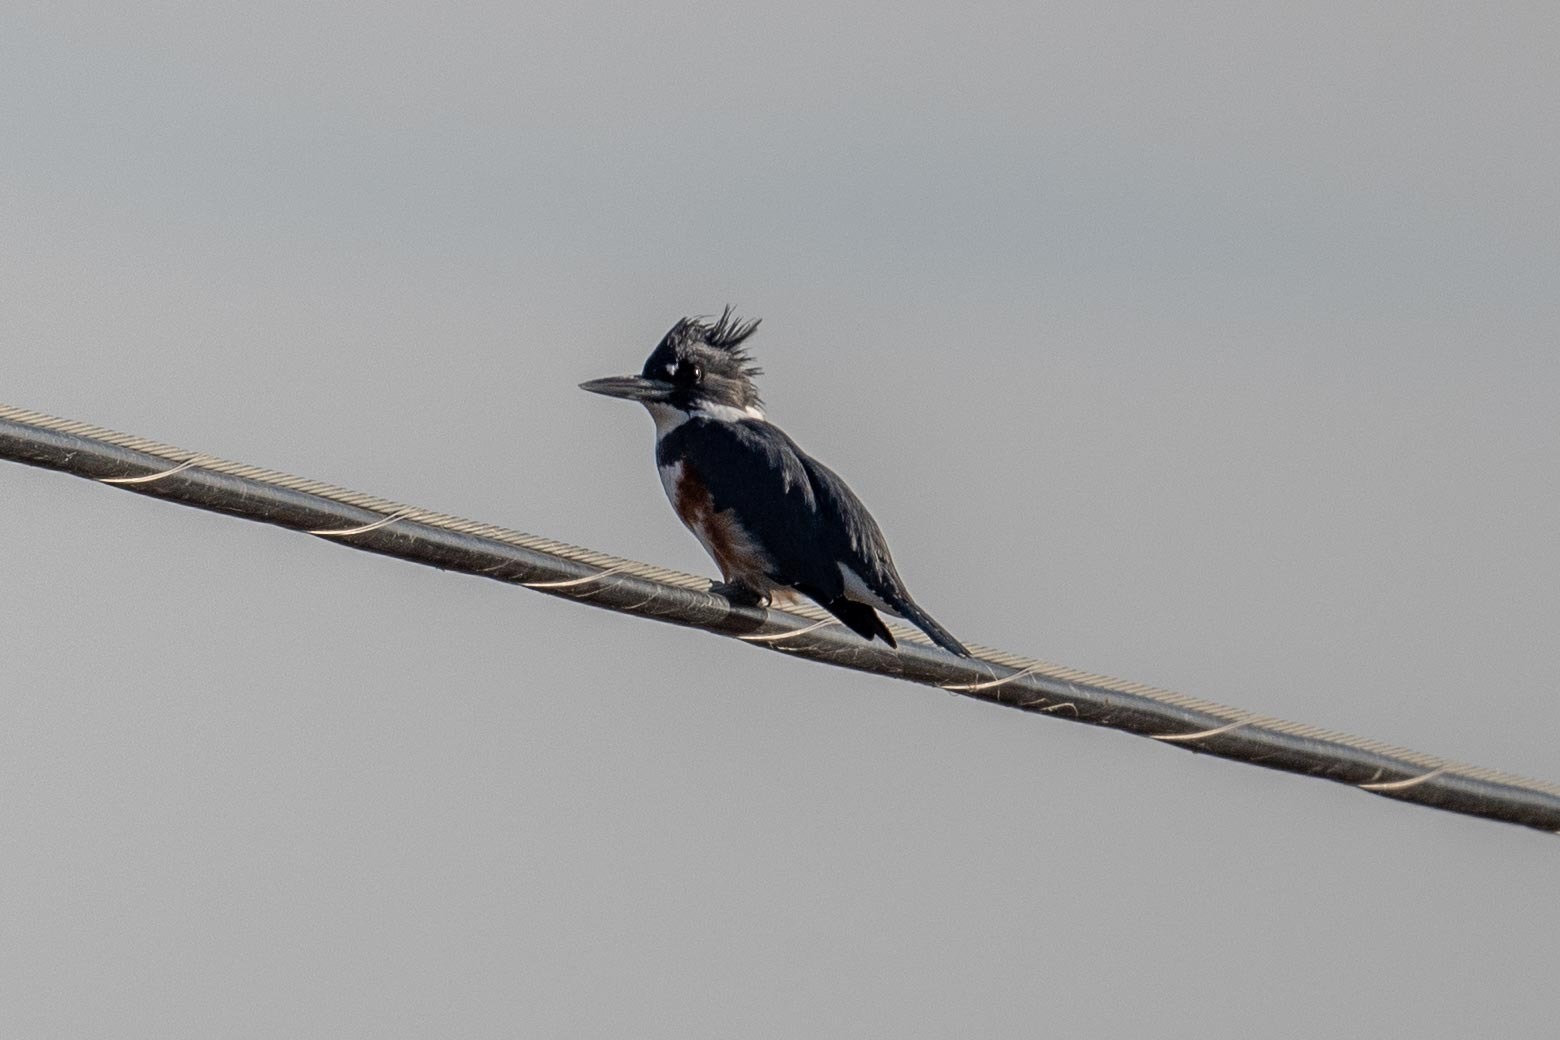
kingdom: Animalia
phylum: Chordata
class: Aves
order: Coraciiformes
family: Alcedinidae
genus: Megaceryle
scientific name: Megaceryle alcyon
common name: Belted kingfisher
